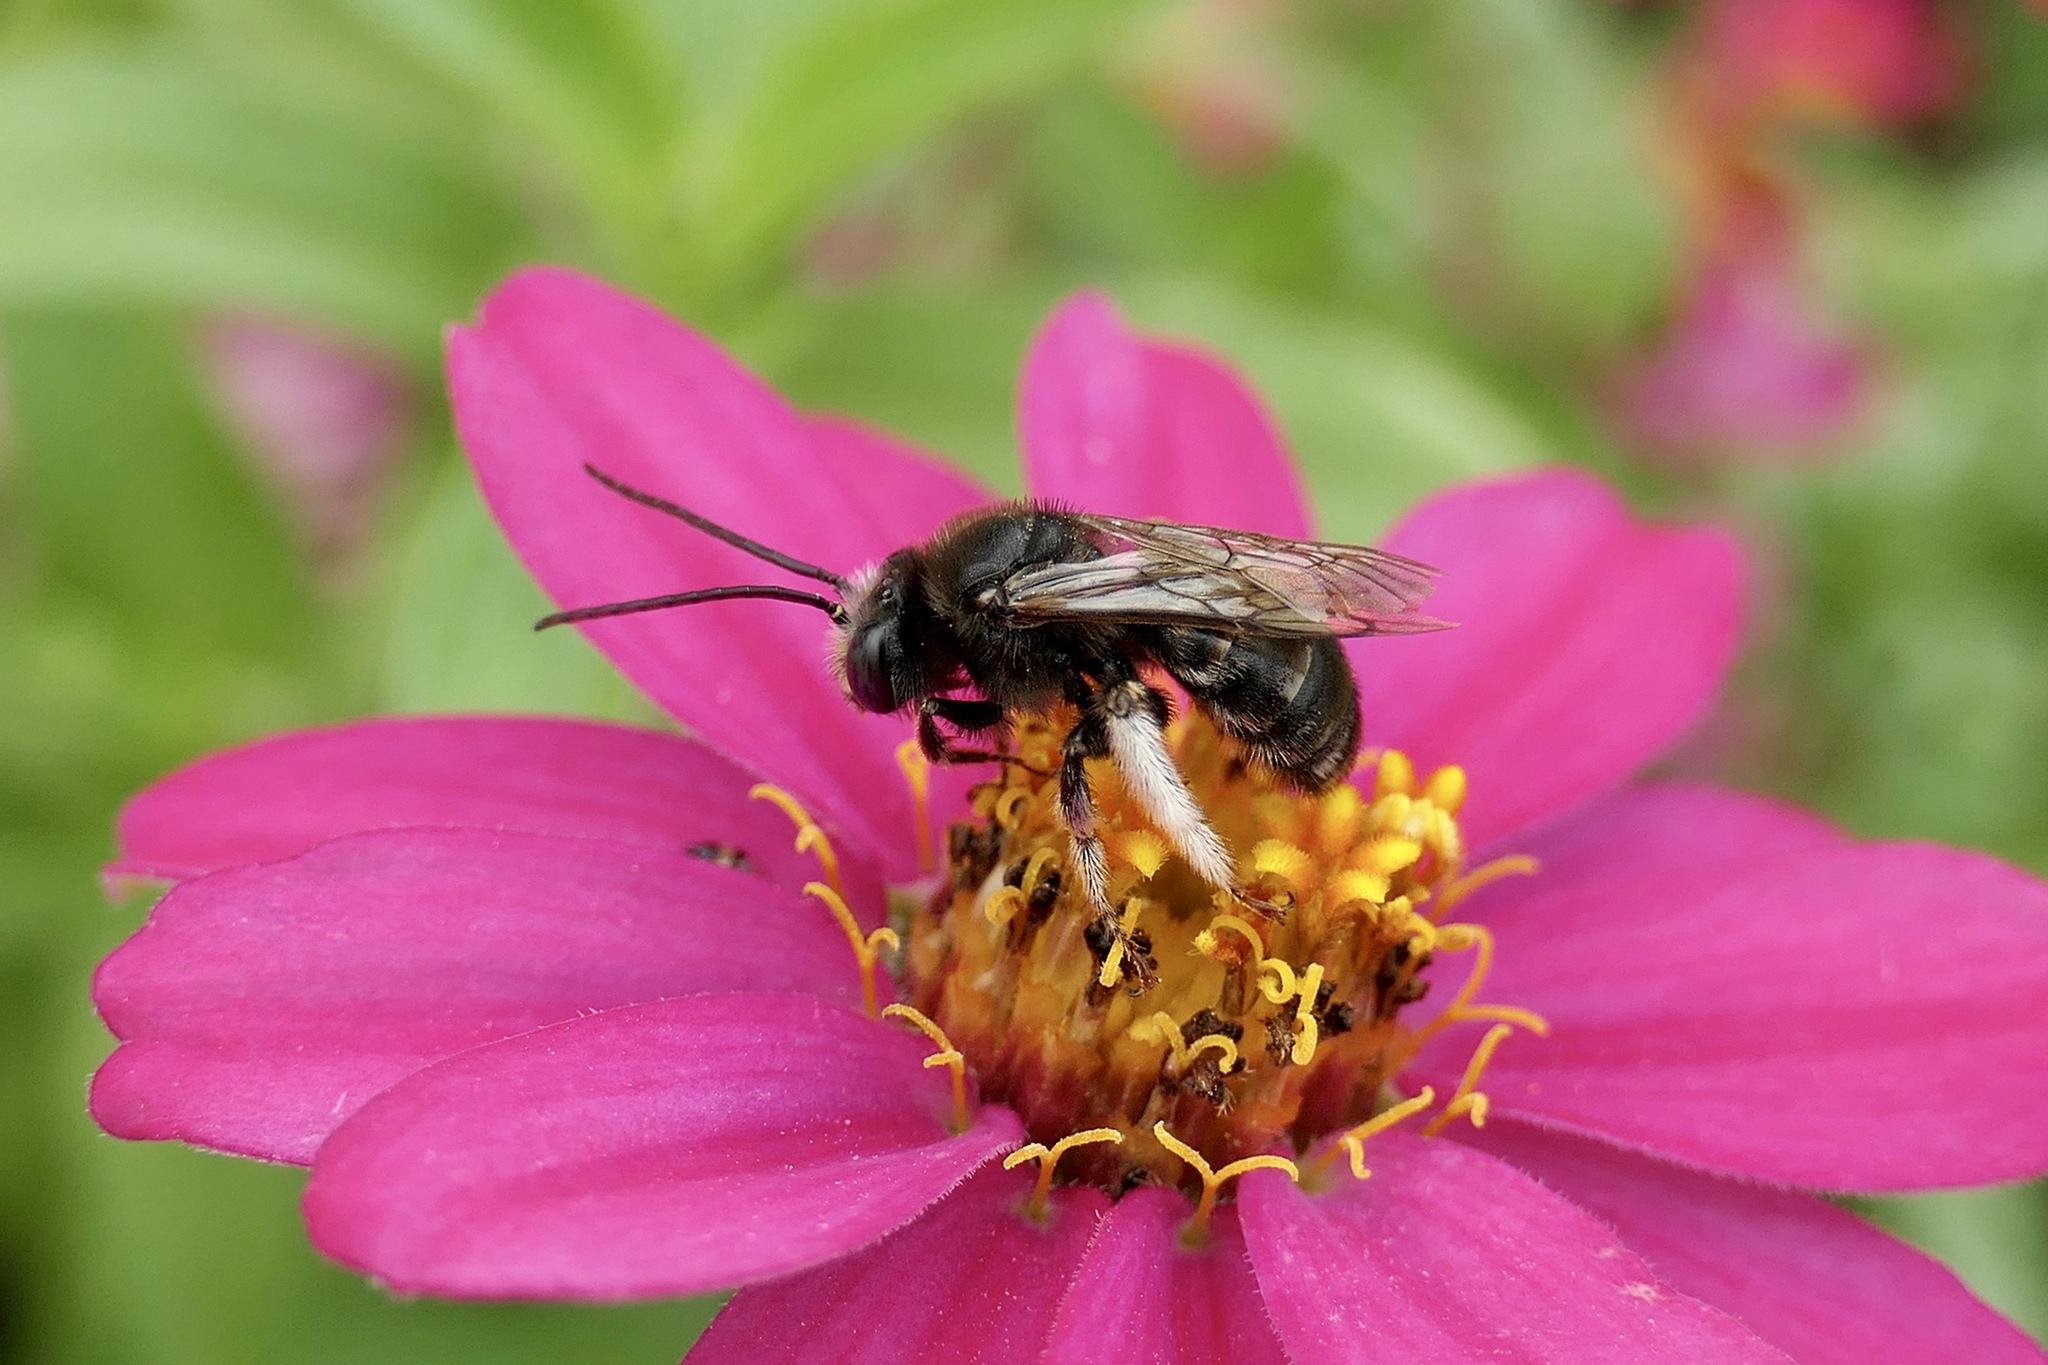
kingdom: Animalia
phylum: Arthropoda
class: Insecta
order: Hymenoptera
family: Apidae
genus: Melissodes
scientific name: Melissodes bimaculatus
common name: Two-spotted long-horned bee
